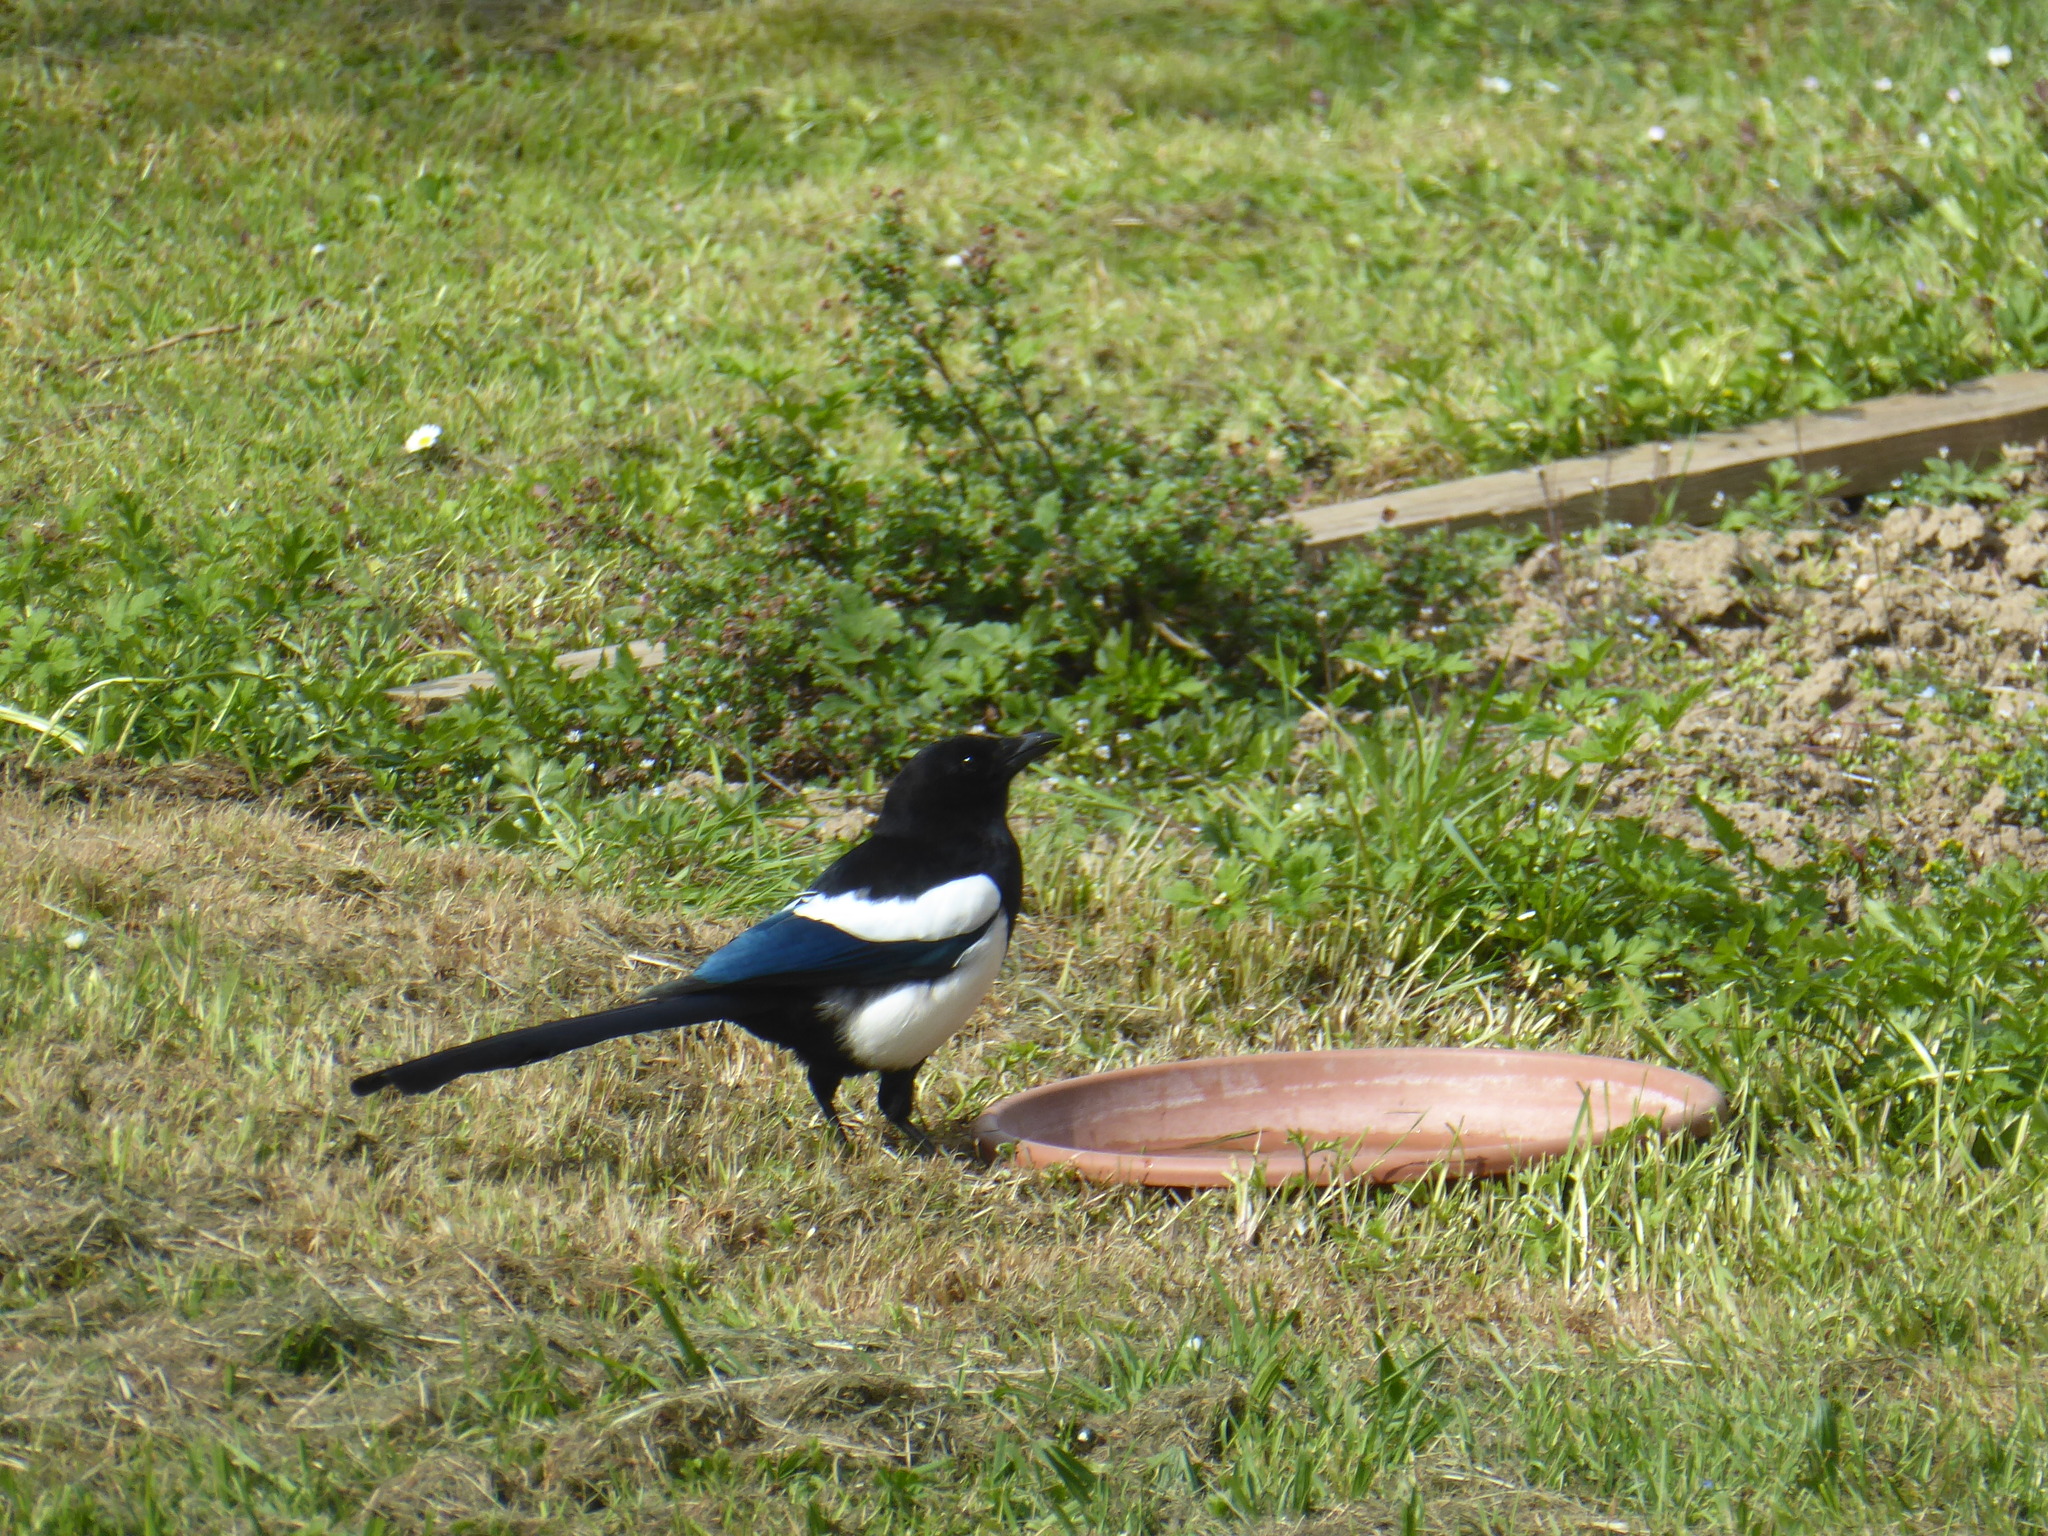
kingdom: Animalia
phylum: Chordata
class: Aves
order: Passeriformes
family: Corvidae
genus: Pica
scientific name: Pica pica
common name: Eurasian magpie
